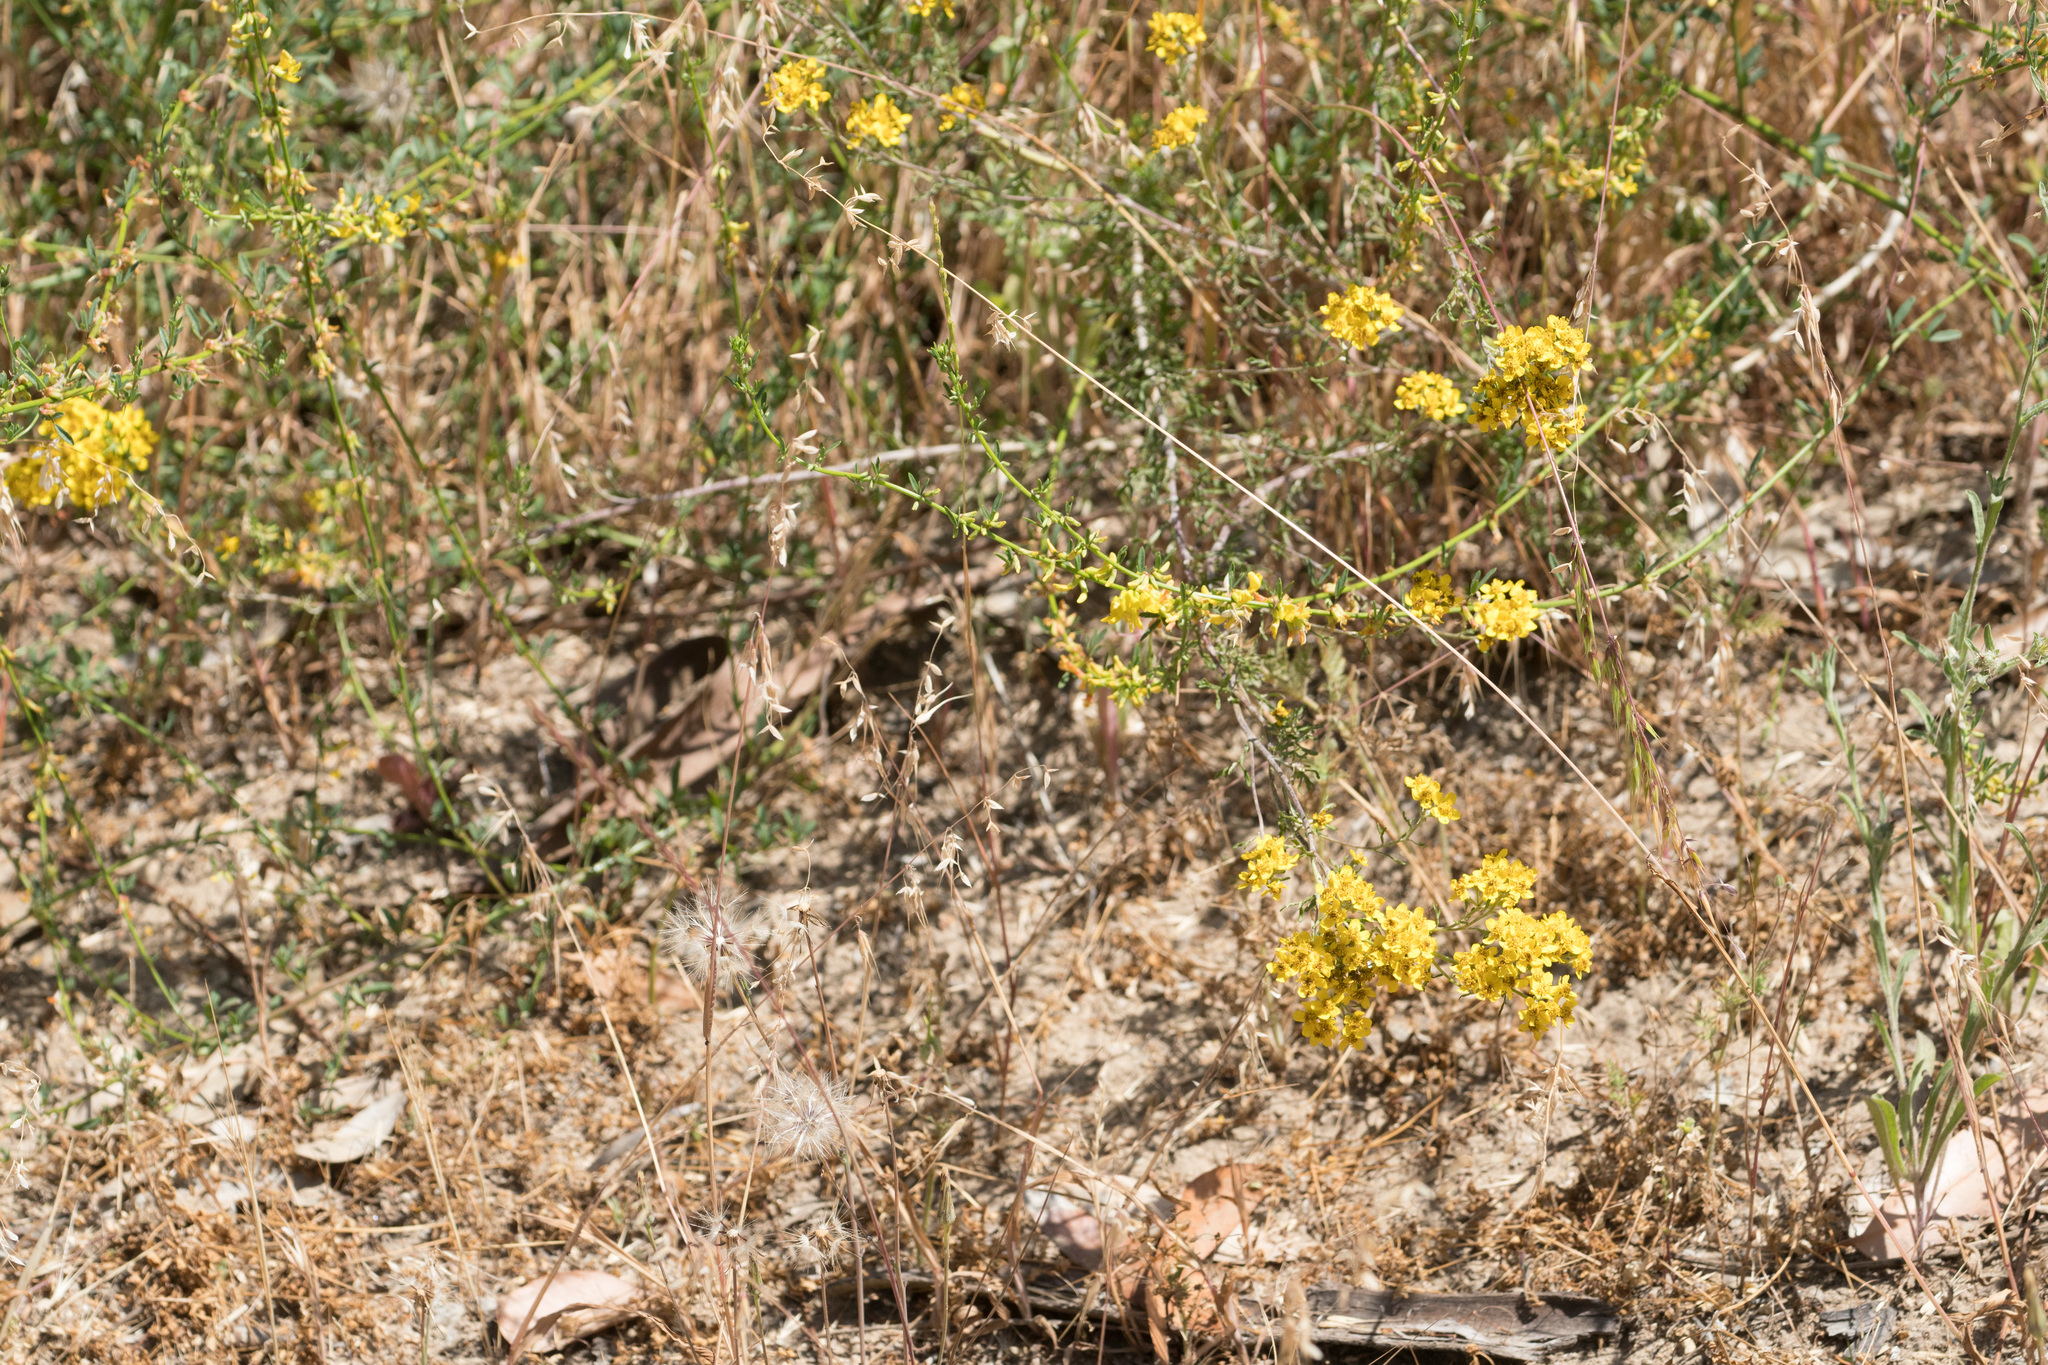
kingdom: Plantae
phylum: Tracheophyta
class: Magnoliopsida
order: Asterales
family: Asteraceae
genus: Eriophyllum
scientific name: Eriophyllum confertiflorum
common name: Golden-yarrow
